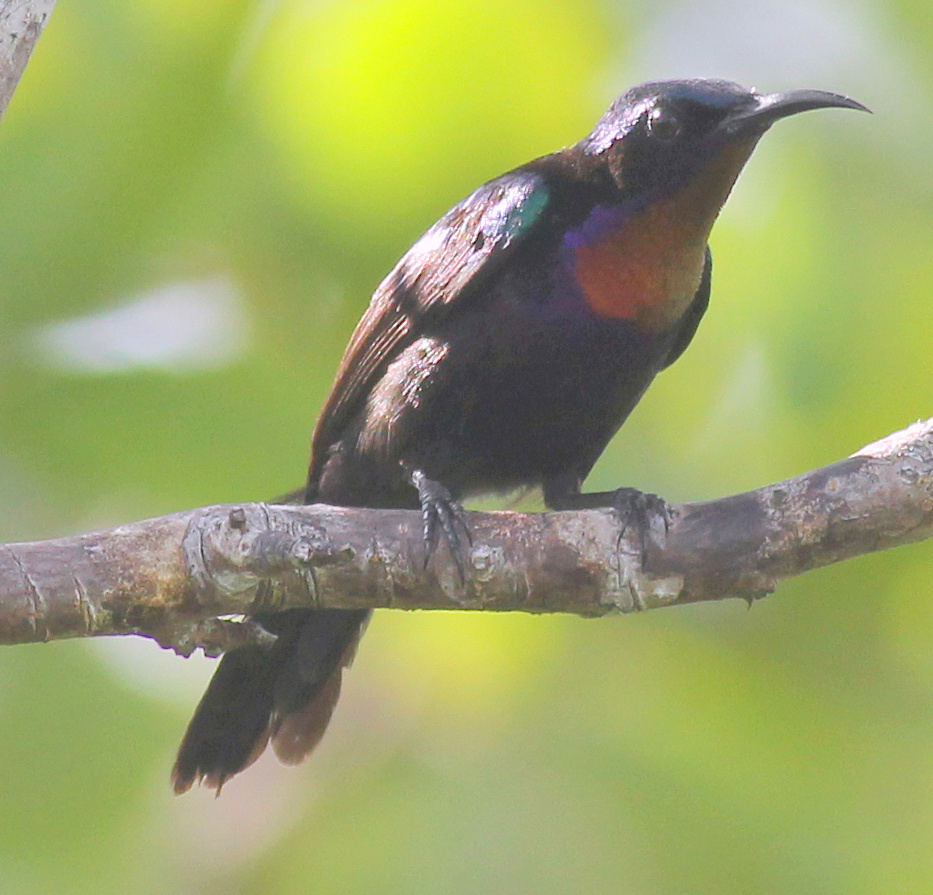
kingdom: Animalia
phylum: Chordata
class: Aves
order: Passeriformes
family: Nectariniidae
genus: Leptocoma
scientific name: Leptocoma calcostetha
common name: Copper-throated sunbird
